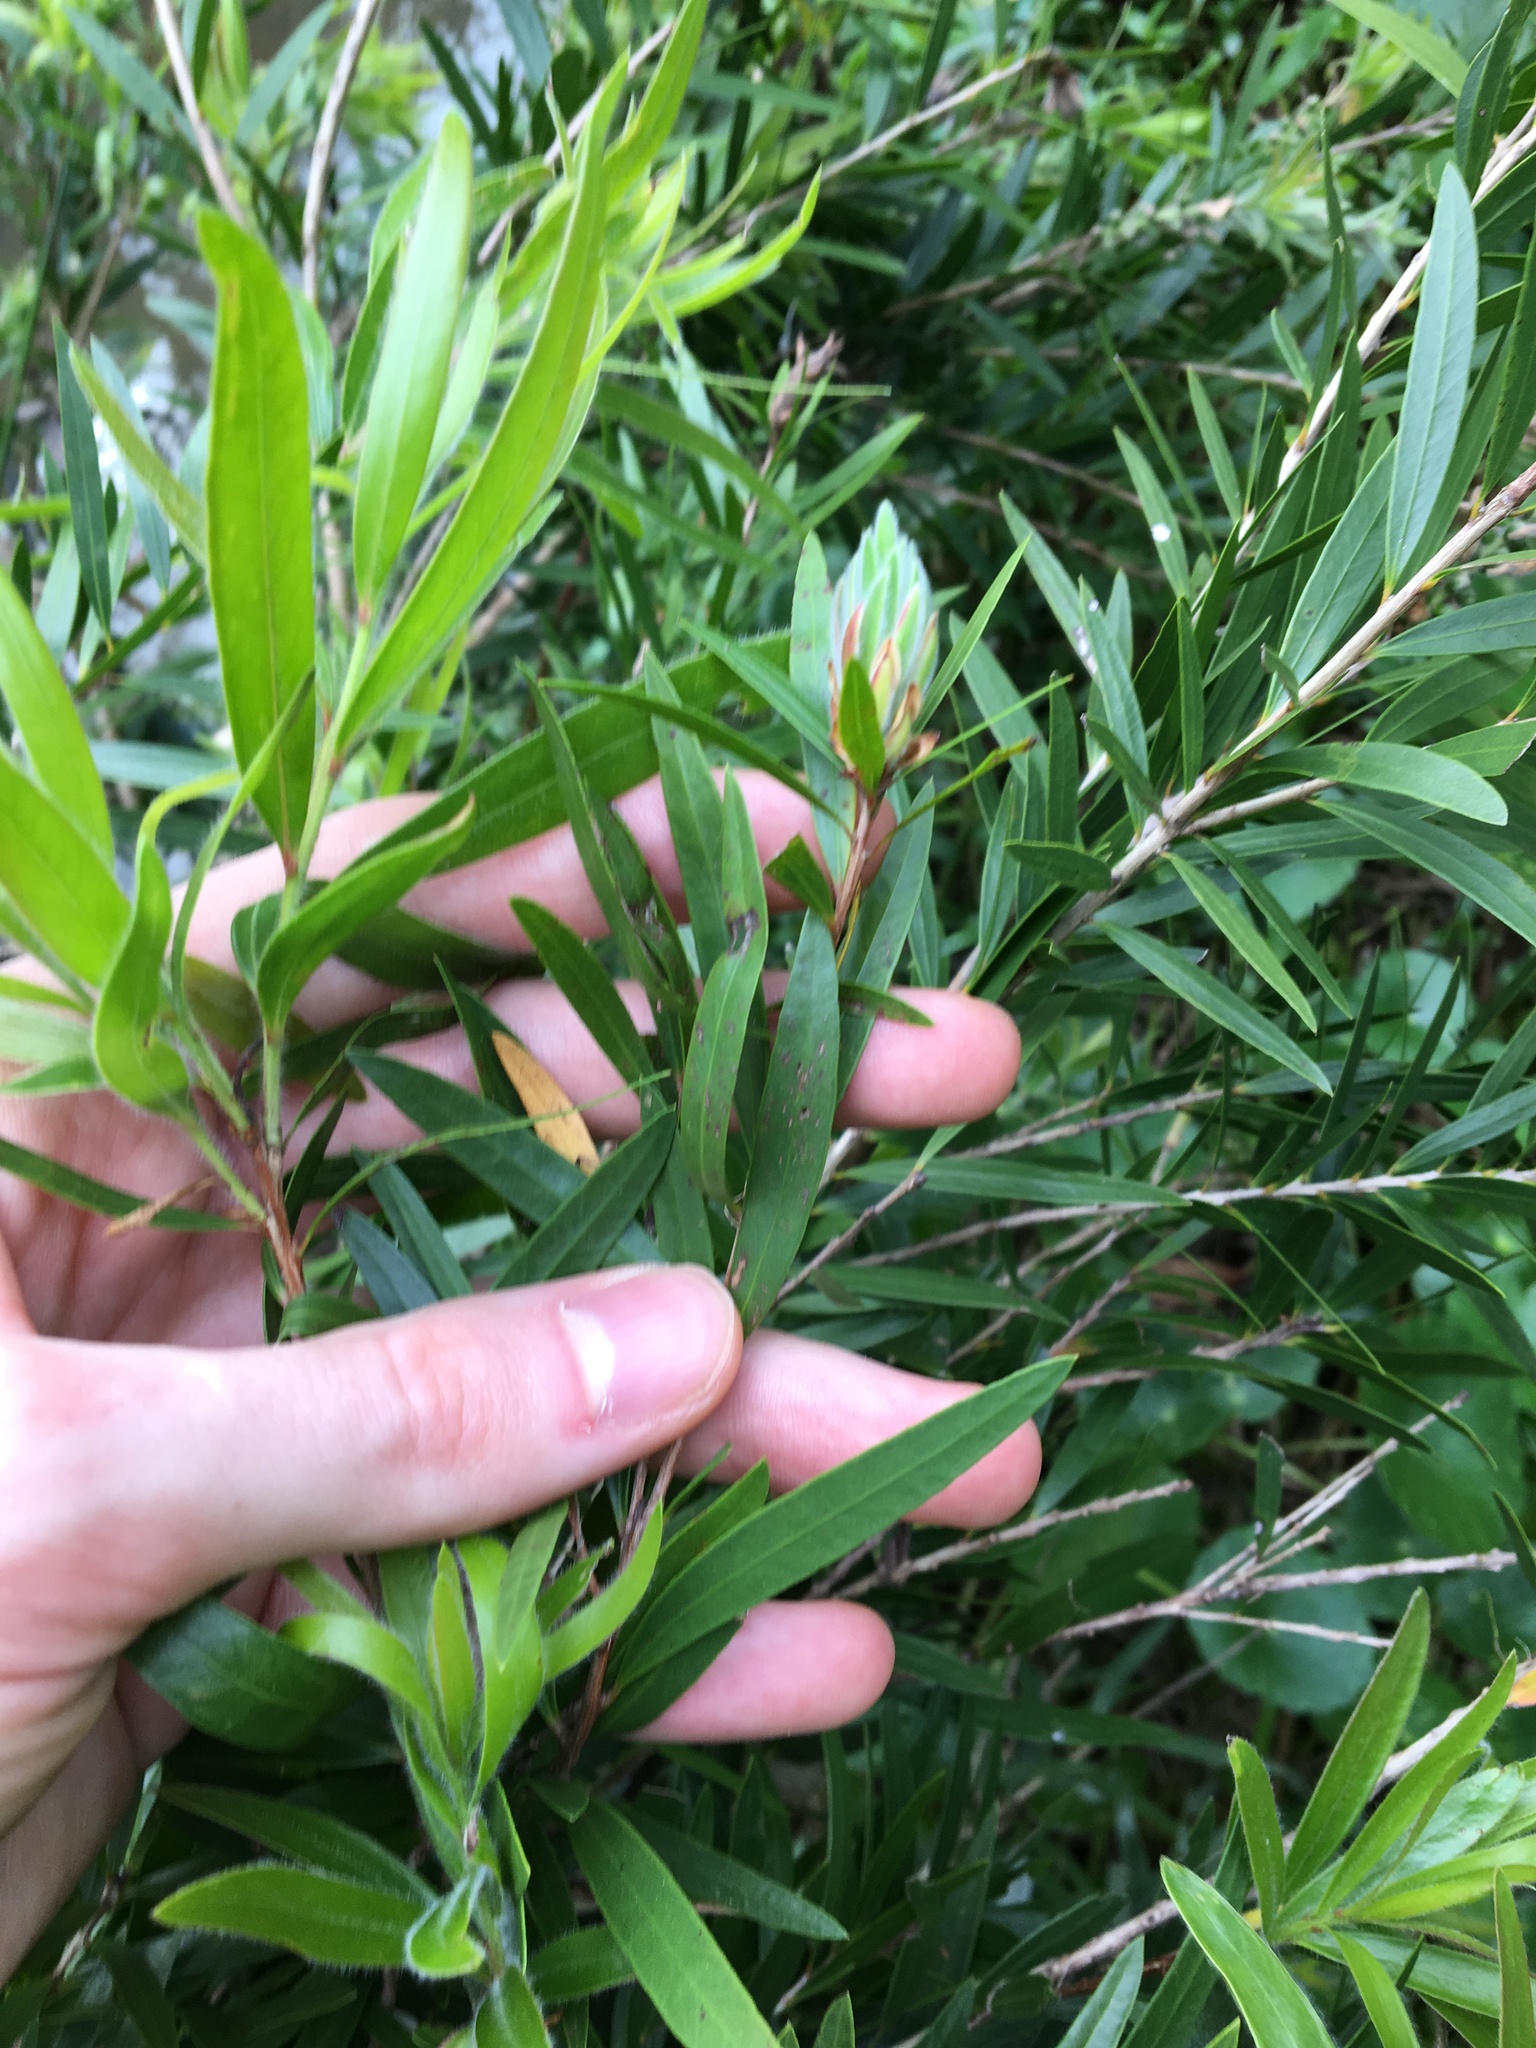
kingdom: Plantae
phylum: Tracheophyta
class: Magnoliopsida
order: Myrtales
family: Myrtaceae
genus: Callistemon
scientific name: Callistemon viminalis
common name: Drooping bottlebrush
